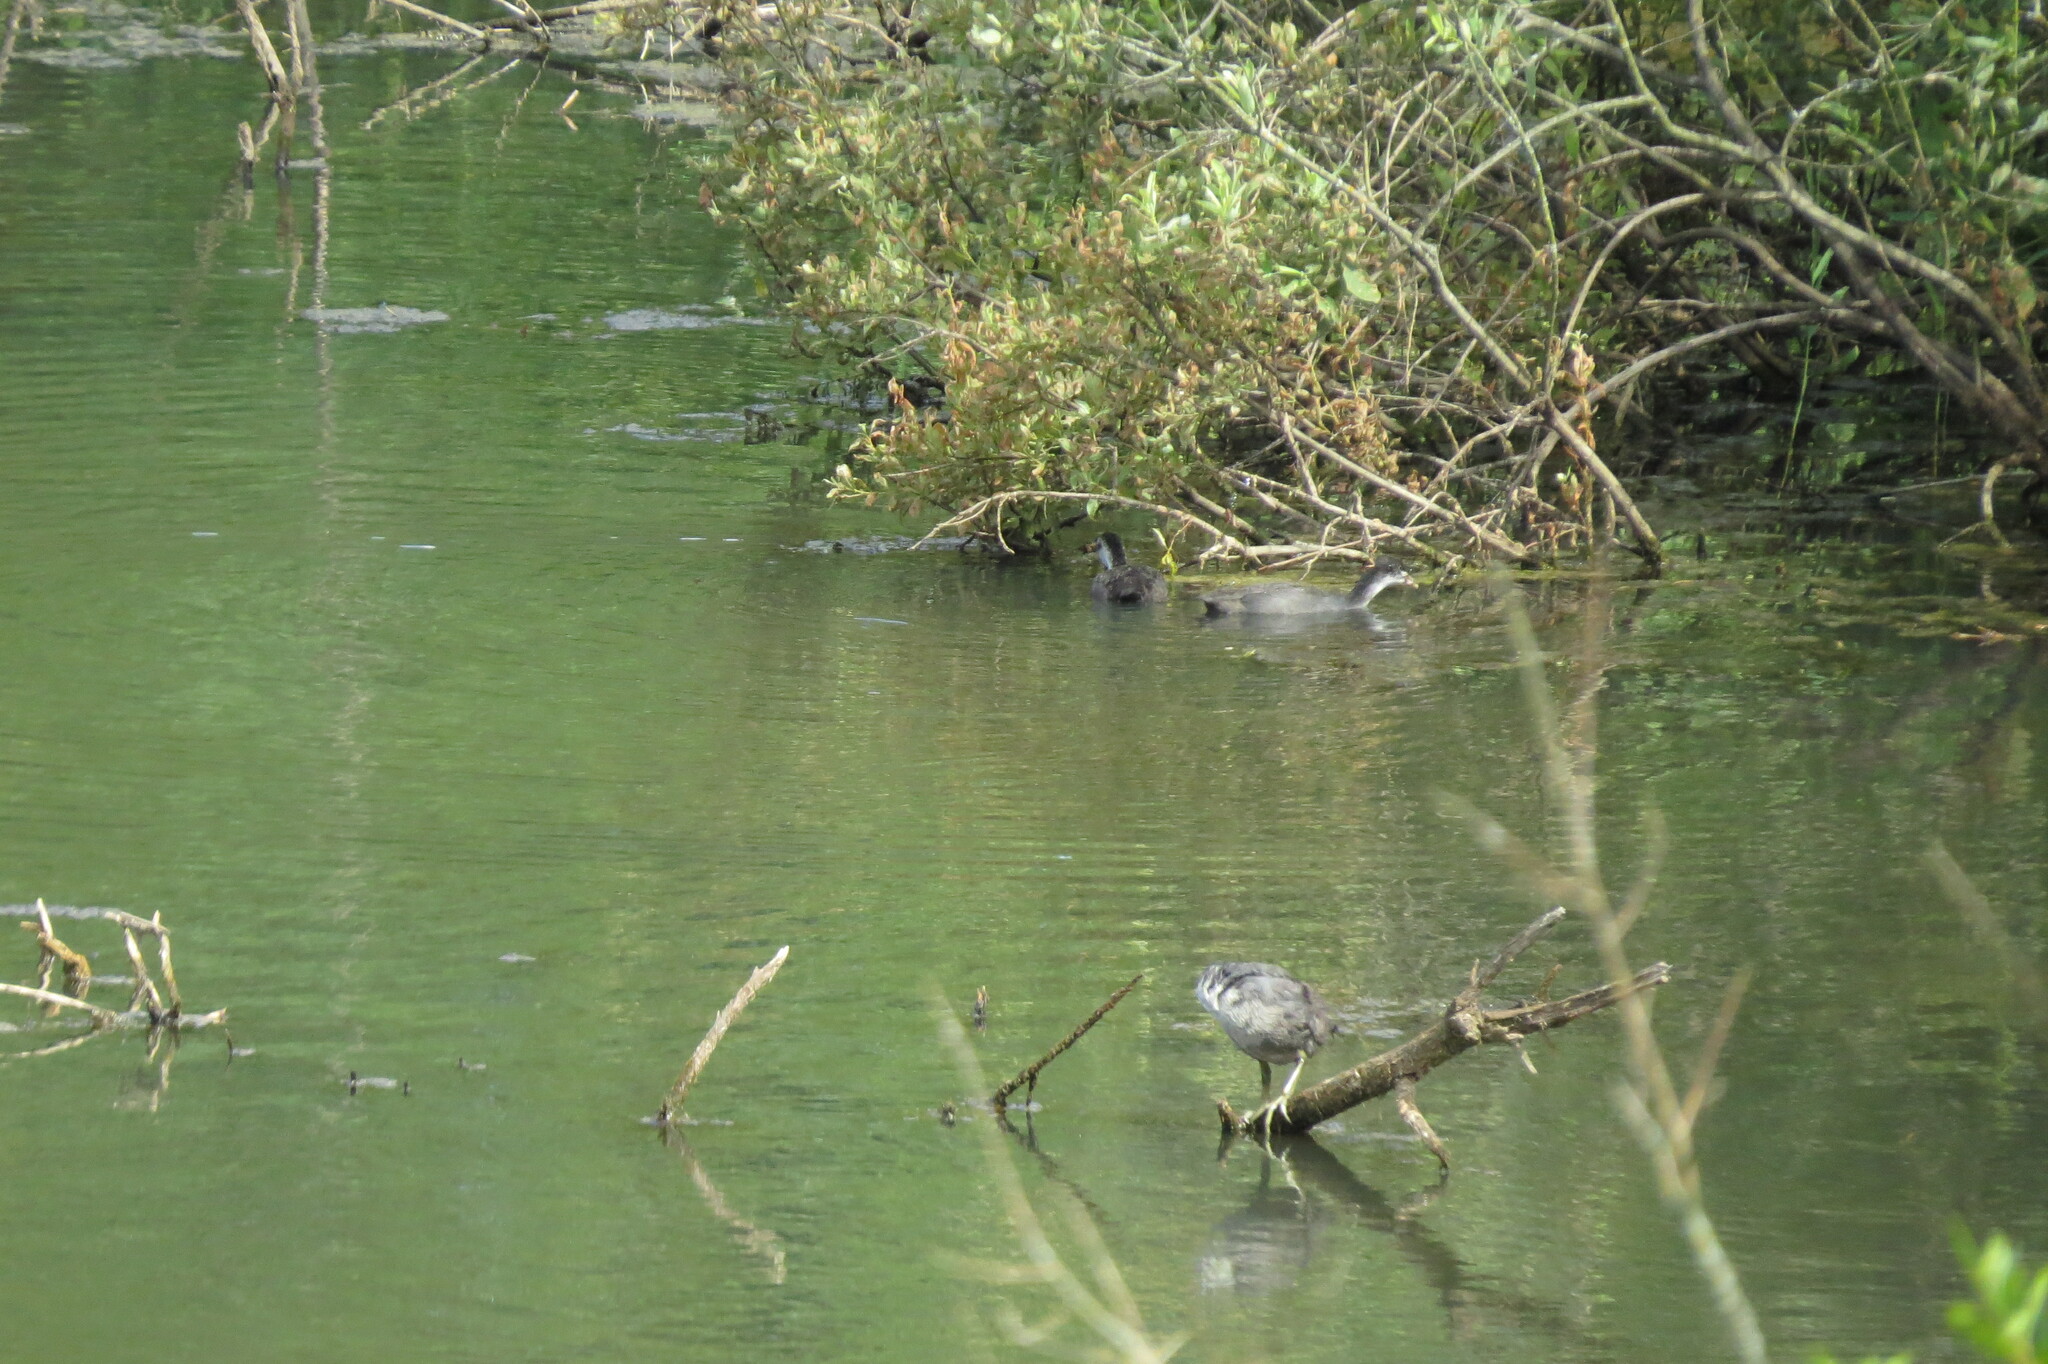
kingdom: Animalia
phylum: Chordata
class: Aves
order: Gruiformes
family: Rallidae
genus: Fulica
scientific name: Fulica atra
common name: Eurasian coot
